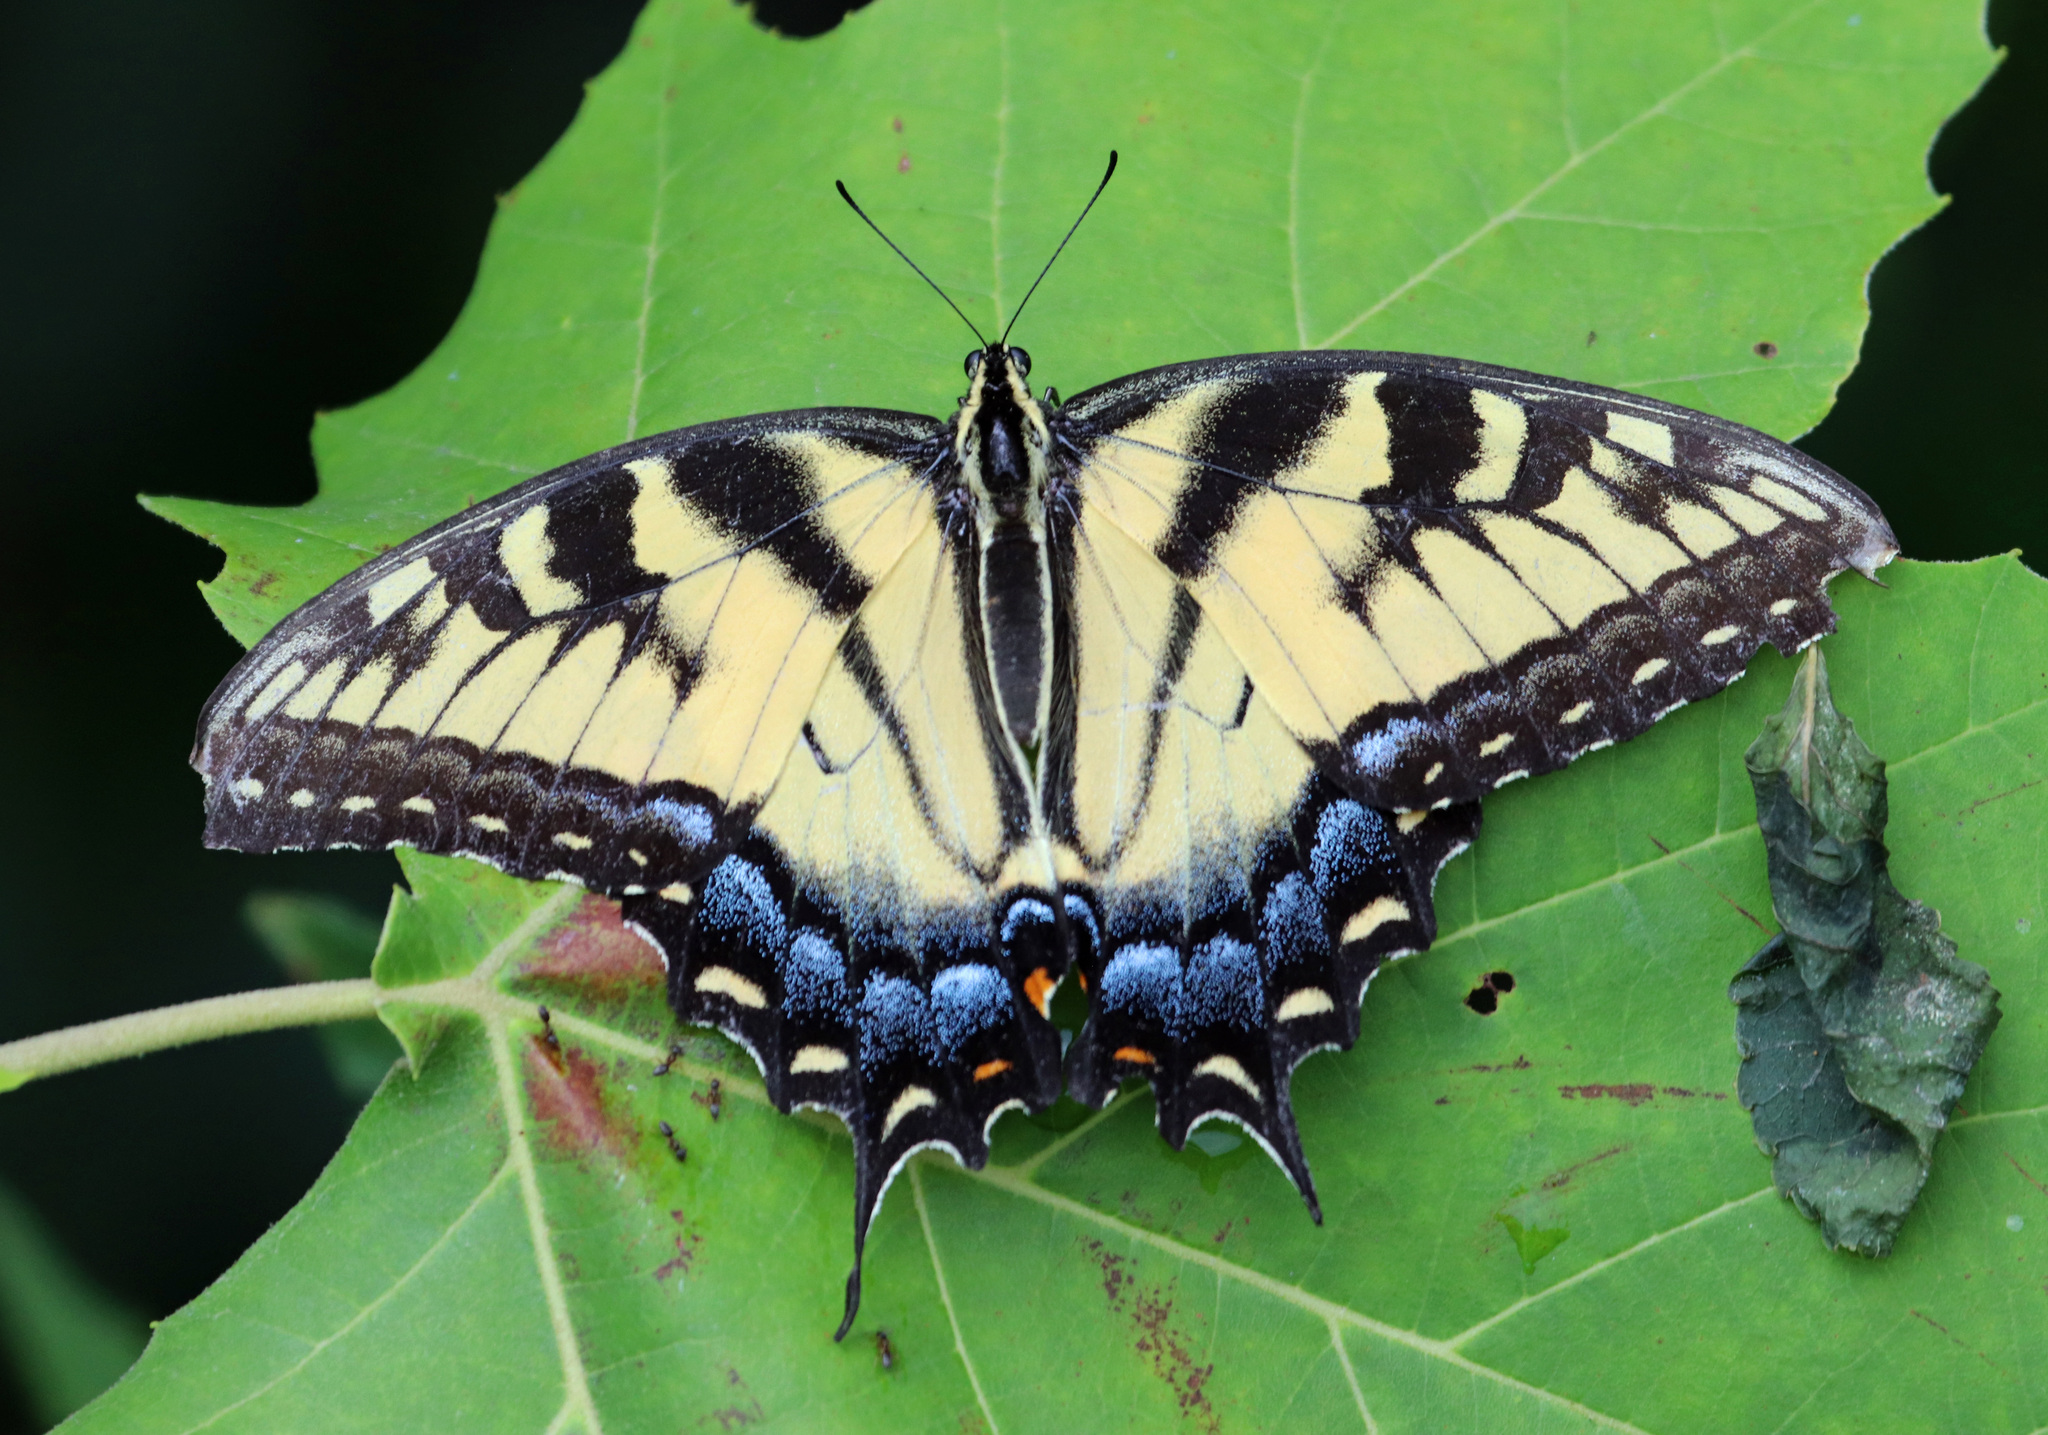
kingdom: Animalia
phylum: Arthropoda
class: Insecta
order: Lepidoptera
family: Papilionidae
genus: Papilio
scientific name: Papilio glaucus
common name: Tiger swallowtail
